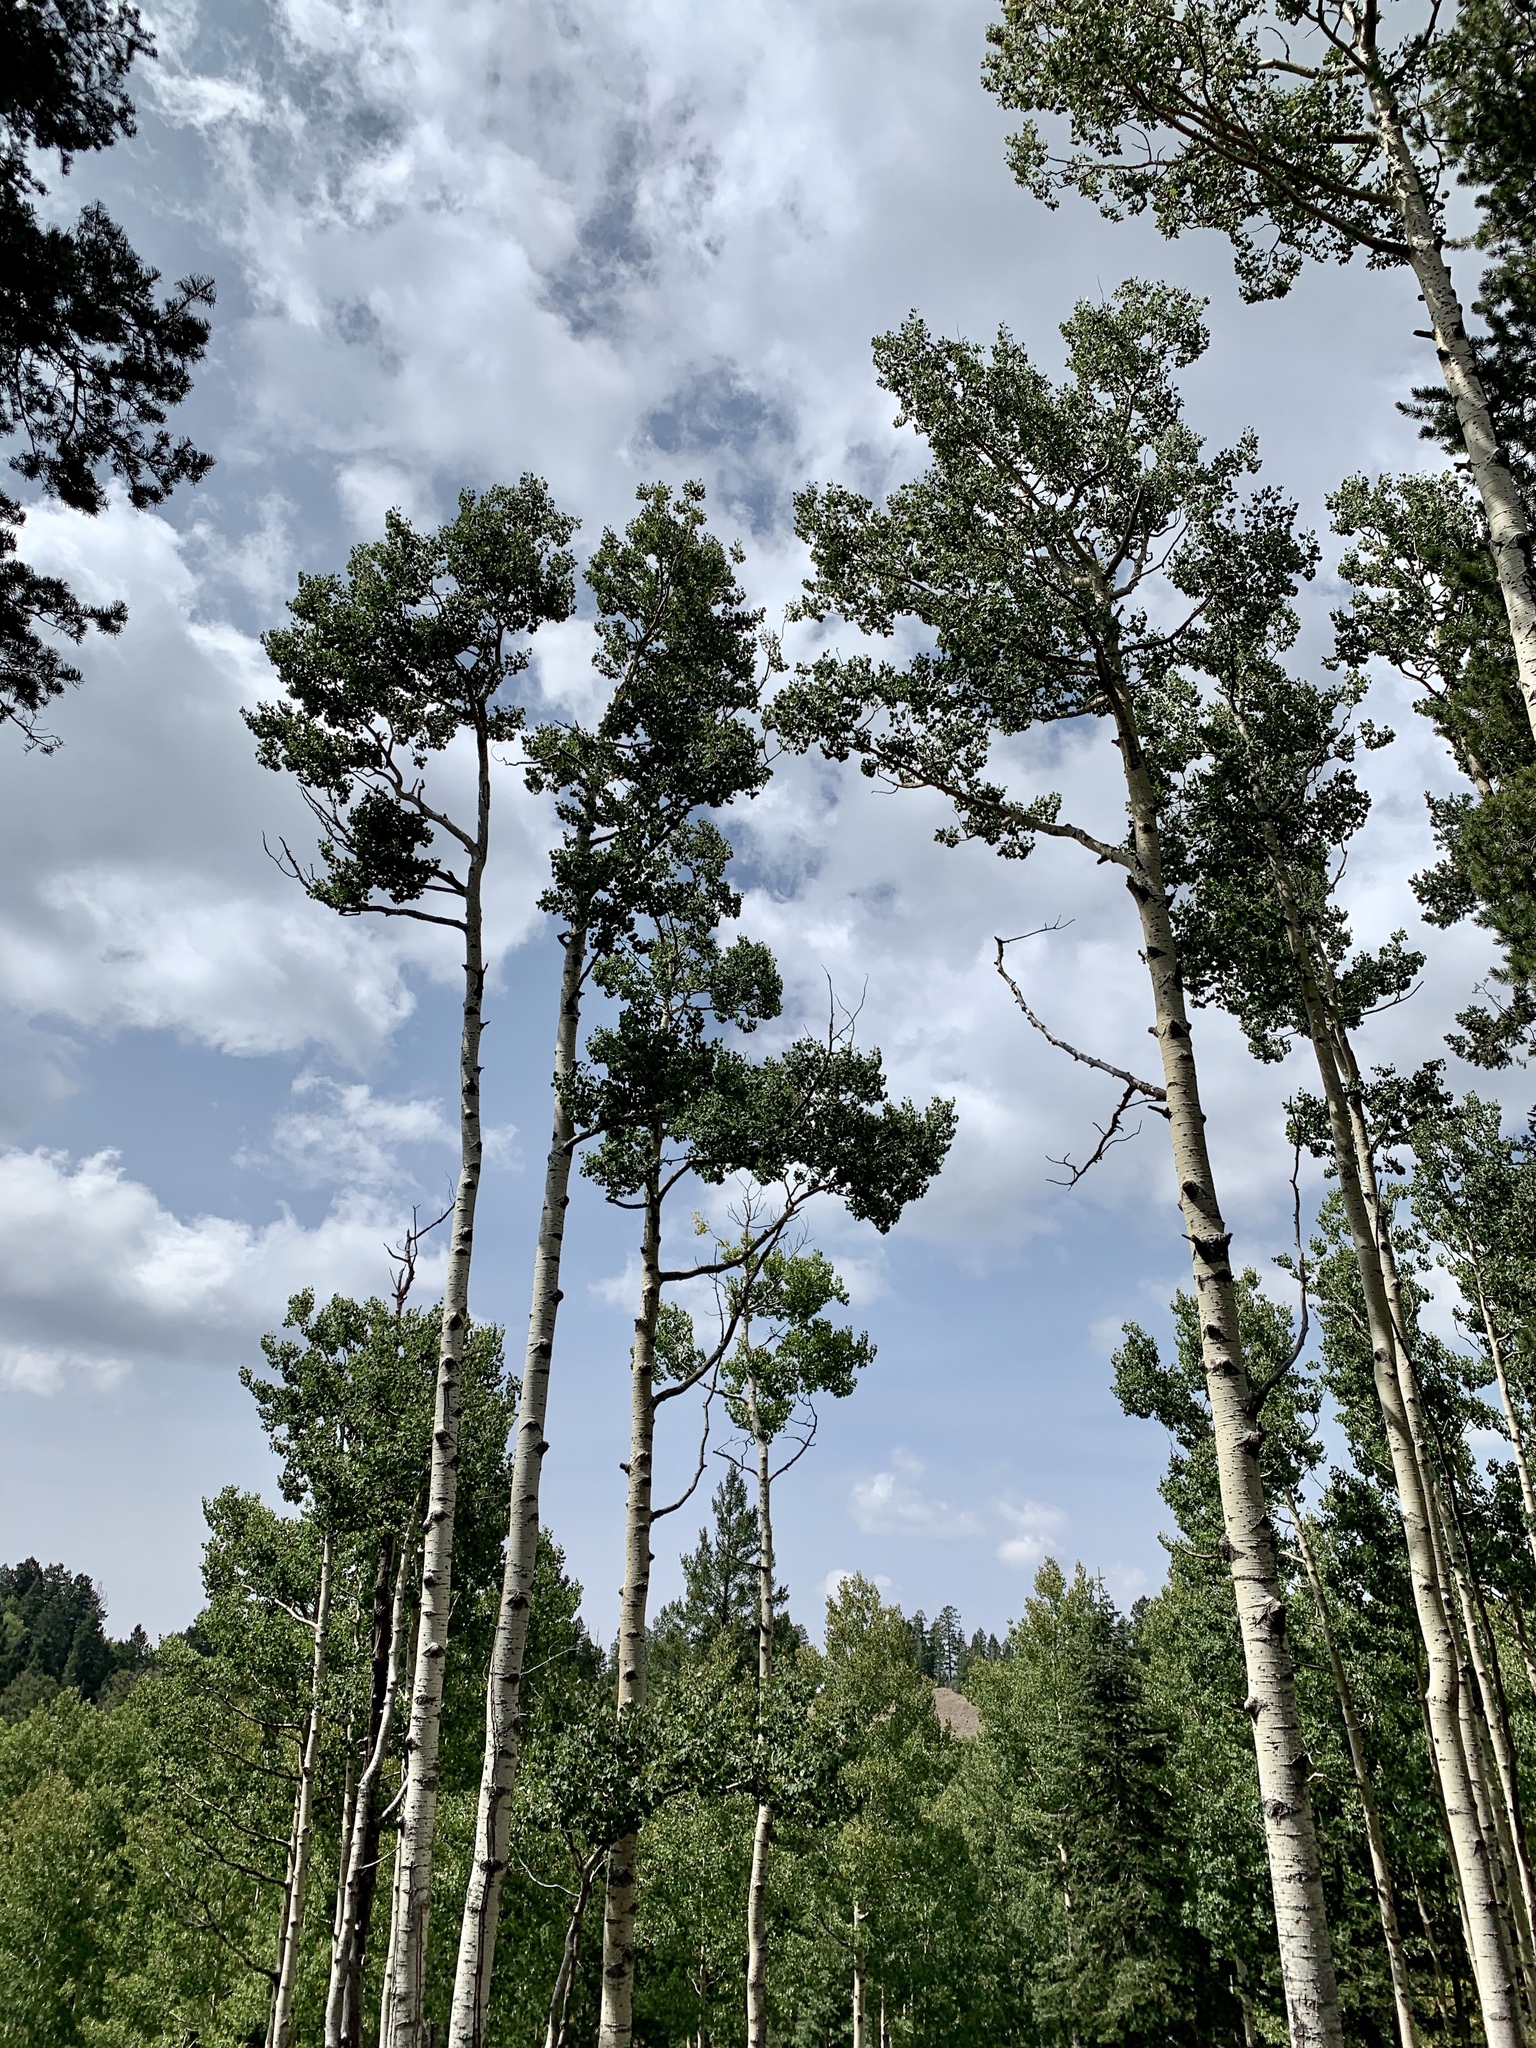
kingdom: Plantae
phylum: Tracheophyta
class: Magnoliopsida
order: Malpighiales
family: Salicaceae
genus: Populus
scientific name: Populus tremuloides
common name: Quaking aspen
